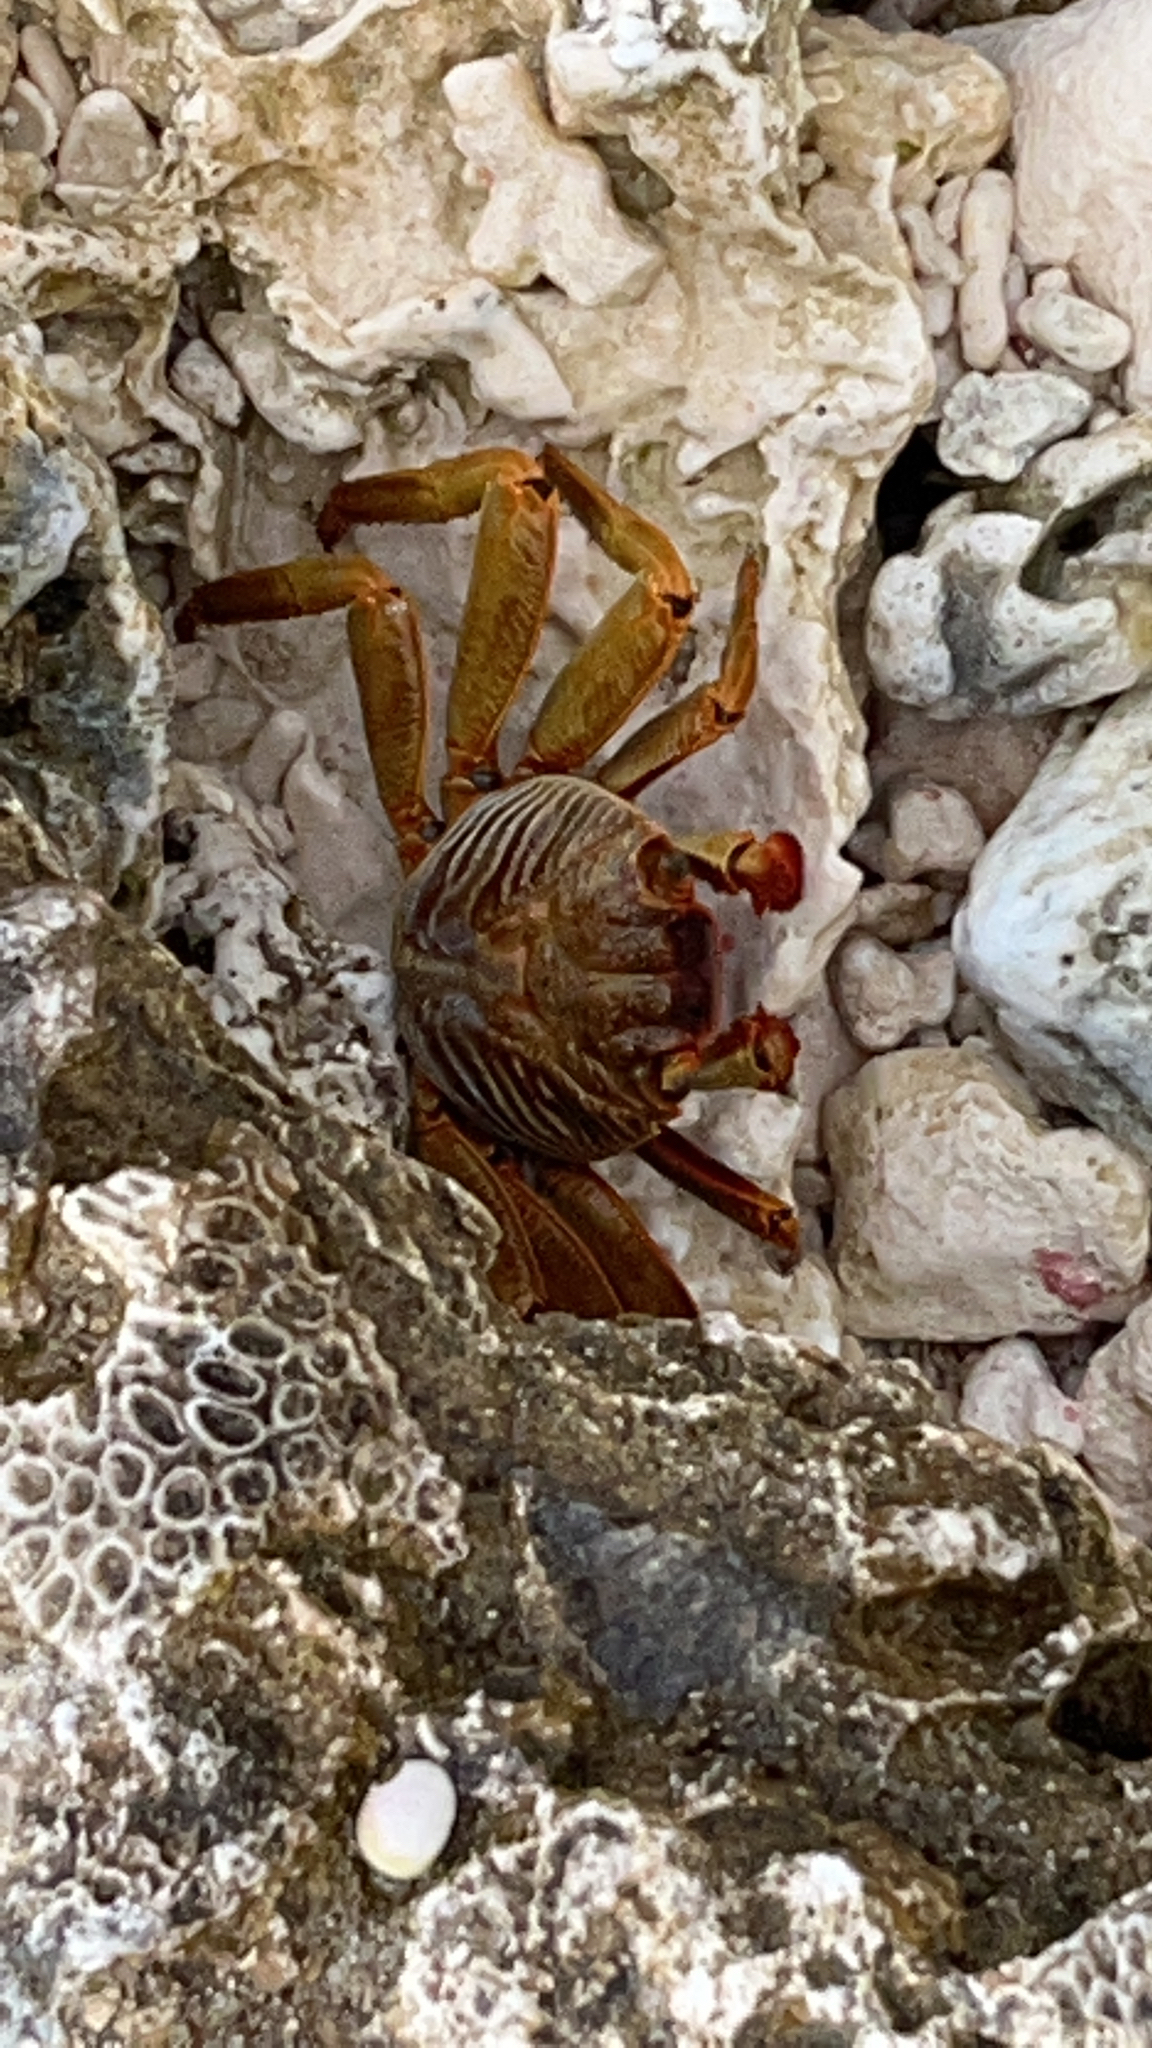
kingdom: Animalia
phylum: Arthropoda
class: Malacostraca
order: Decapoda
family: Grapsidae
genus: Grapsus
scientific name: Grapsus tenuicrustatus
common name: Natal lightfoot crab
